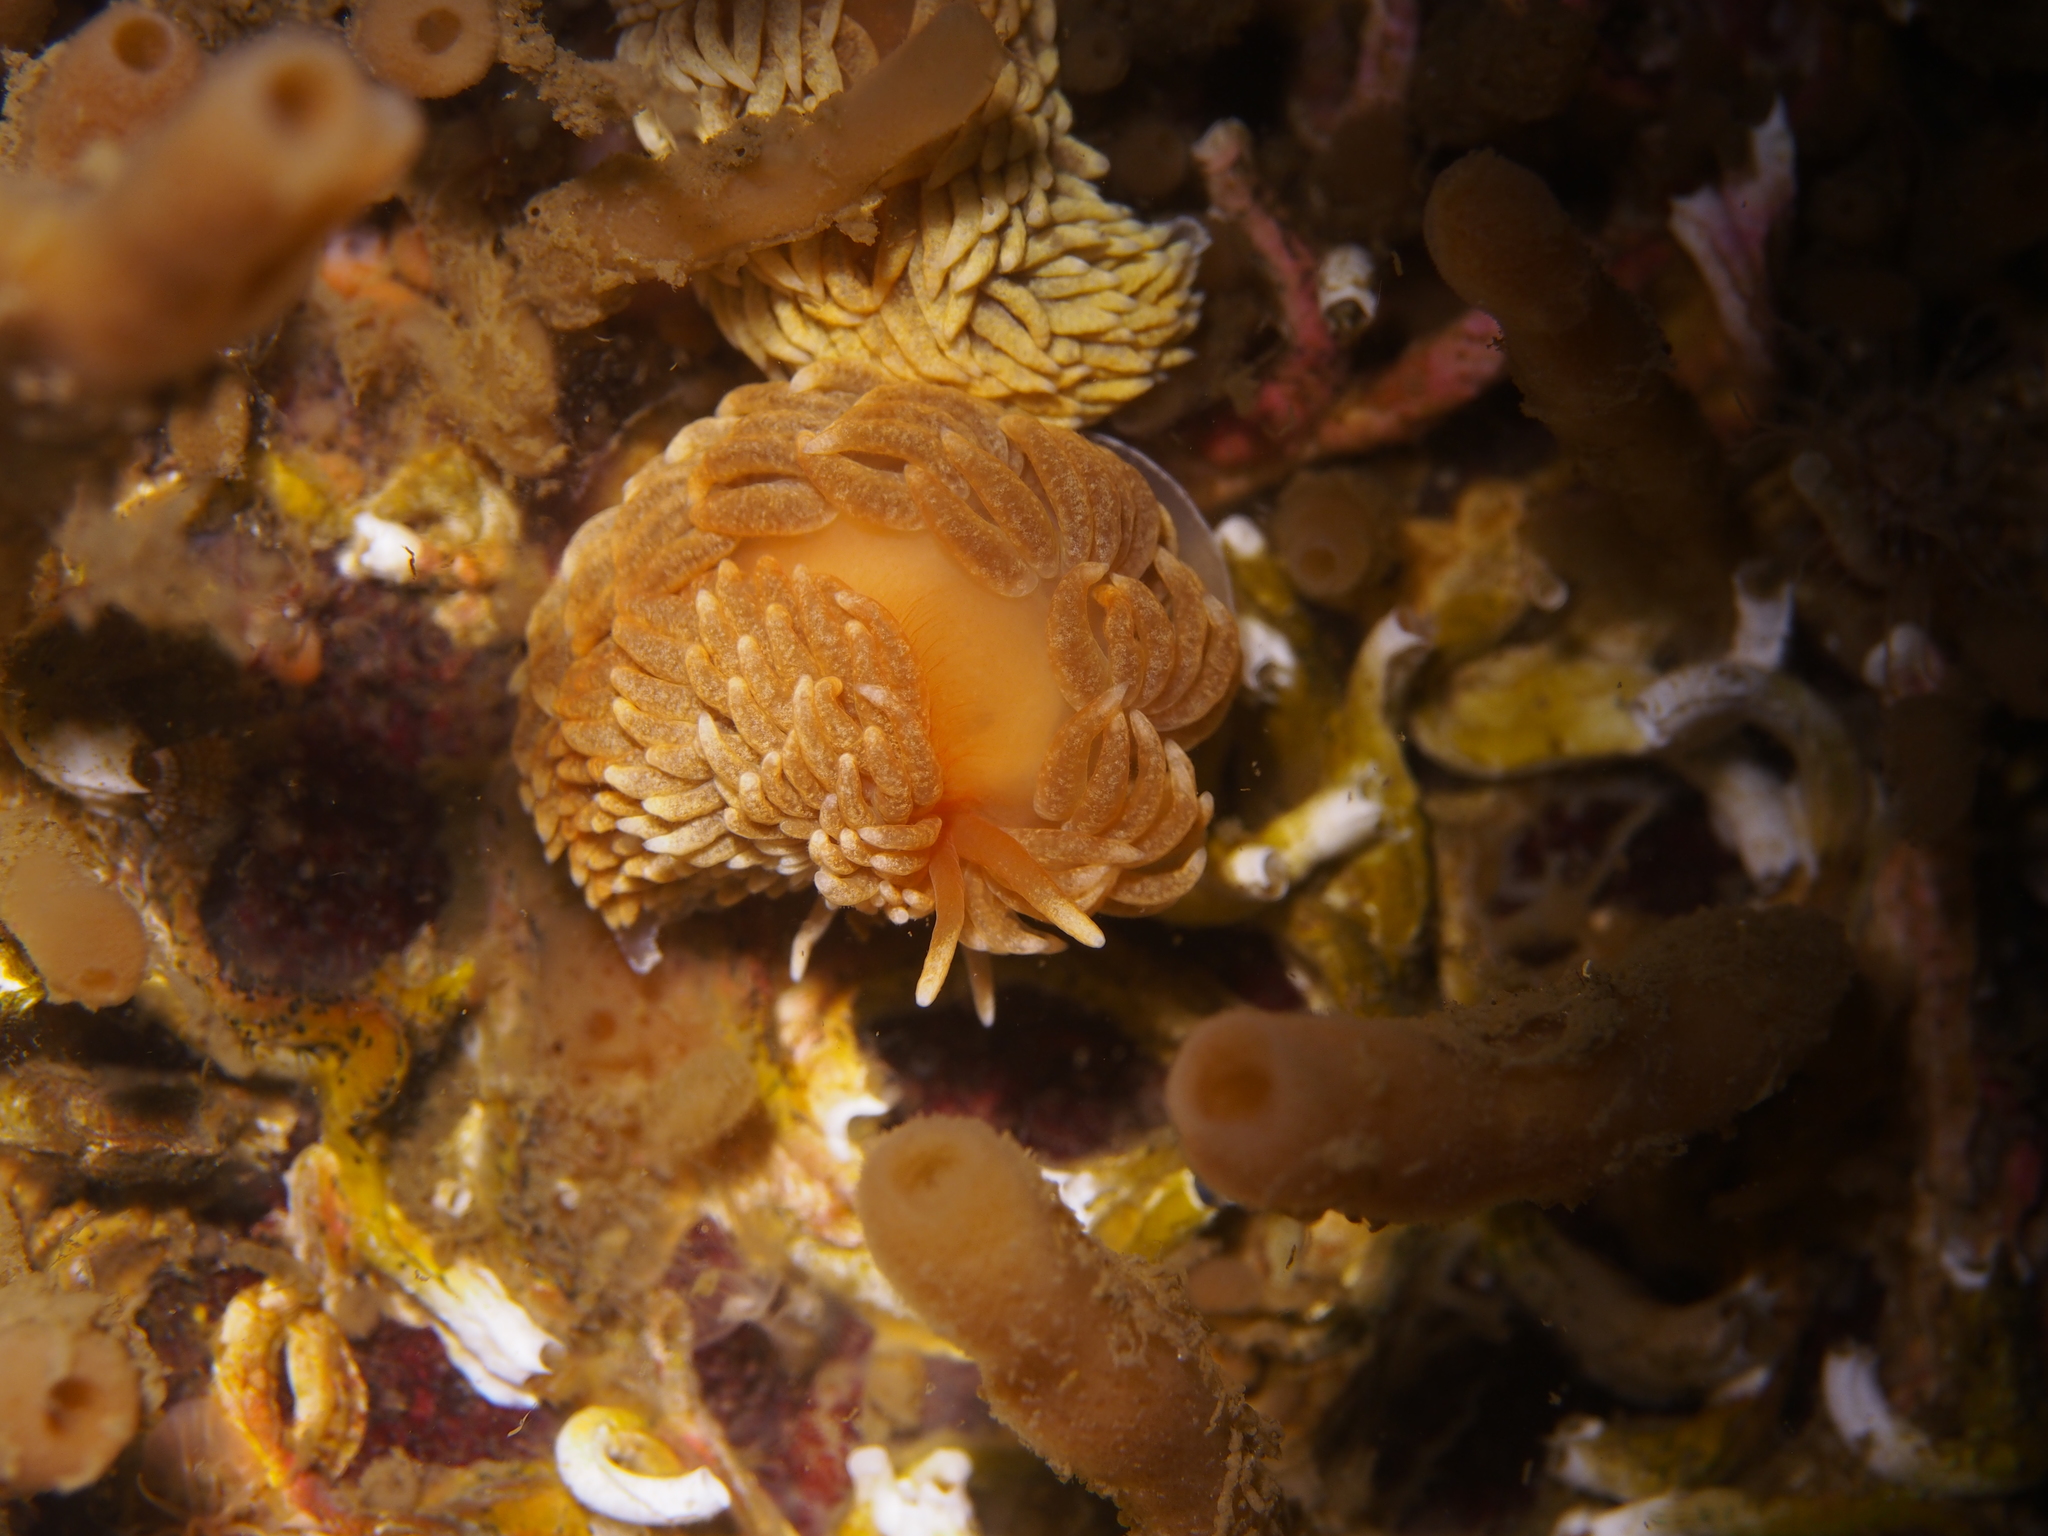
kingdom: Animalia
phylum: Mollusca
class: Gastropoda
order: Nudibranchia
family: Aeolidiidae
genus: Aeolidiella
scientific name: Aeolidiella glauca
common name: Orange-brown aeolid
